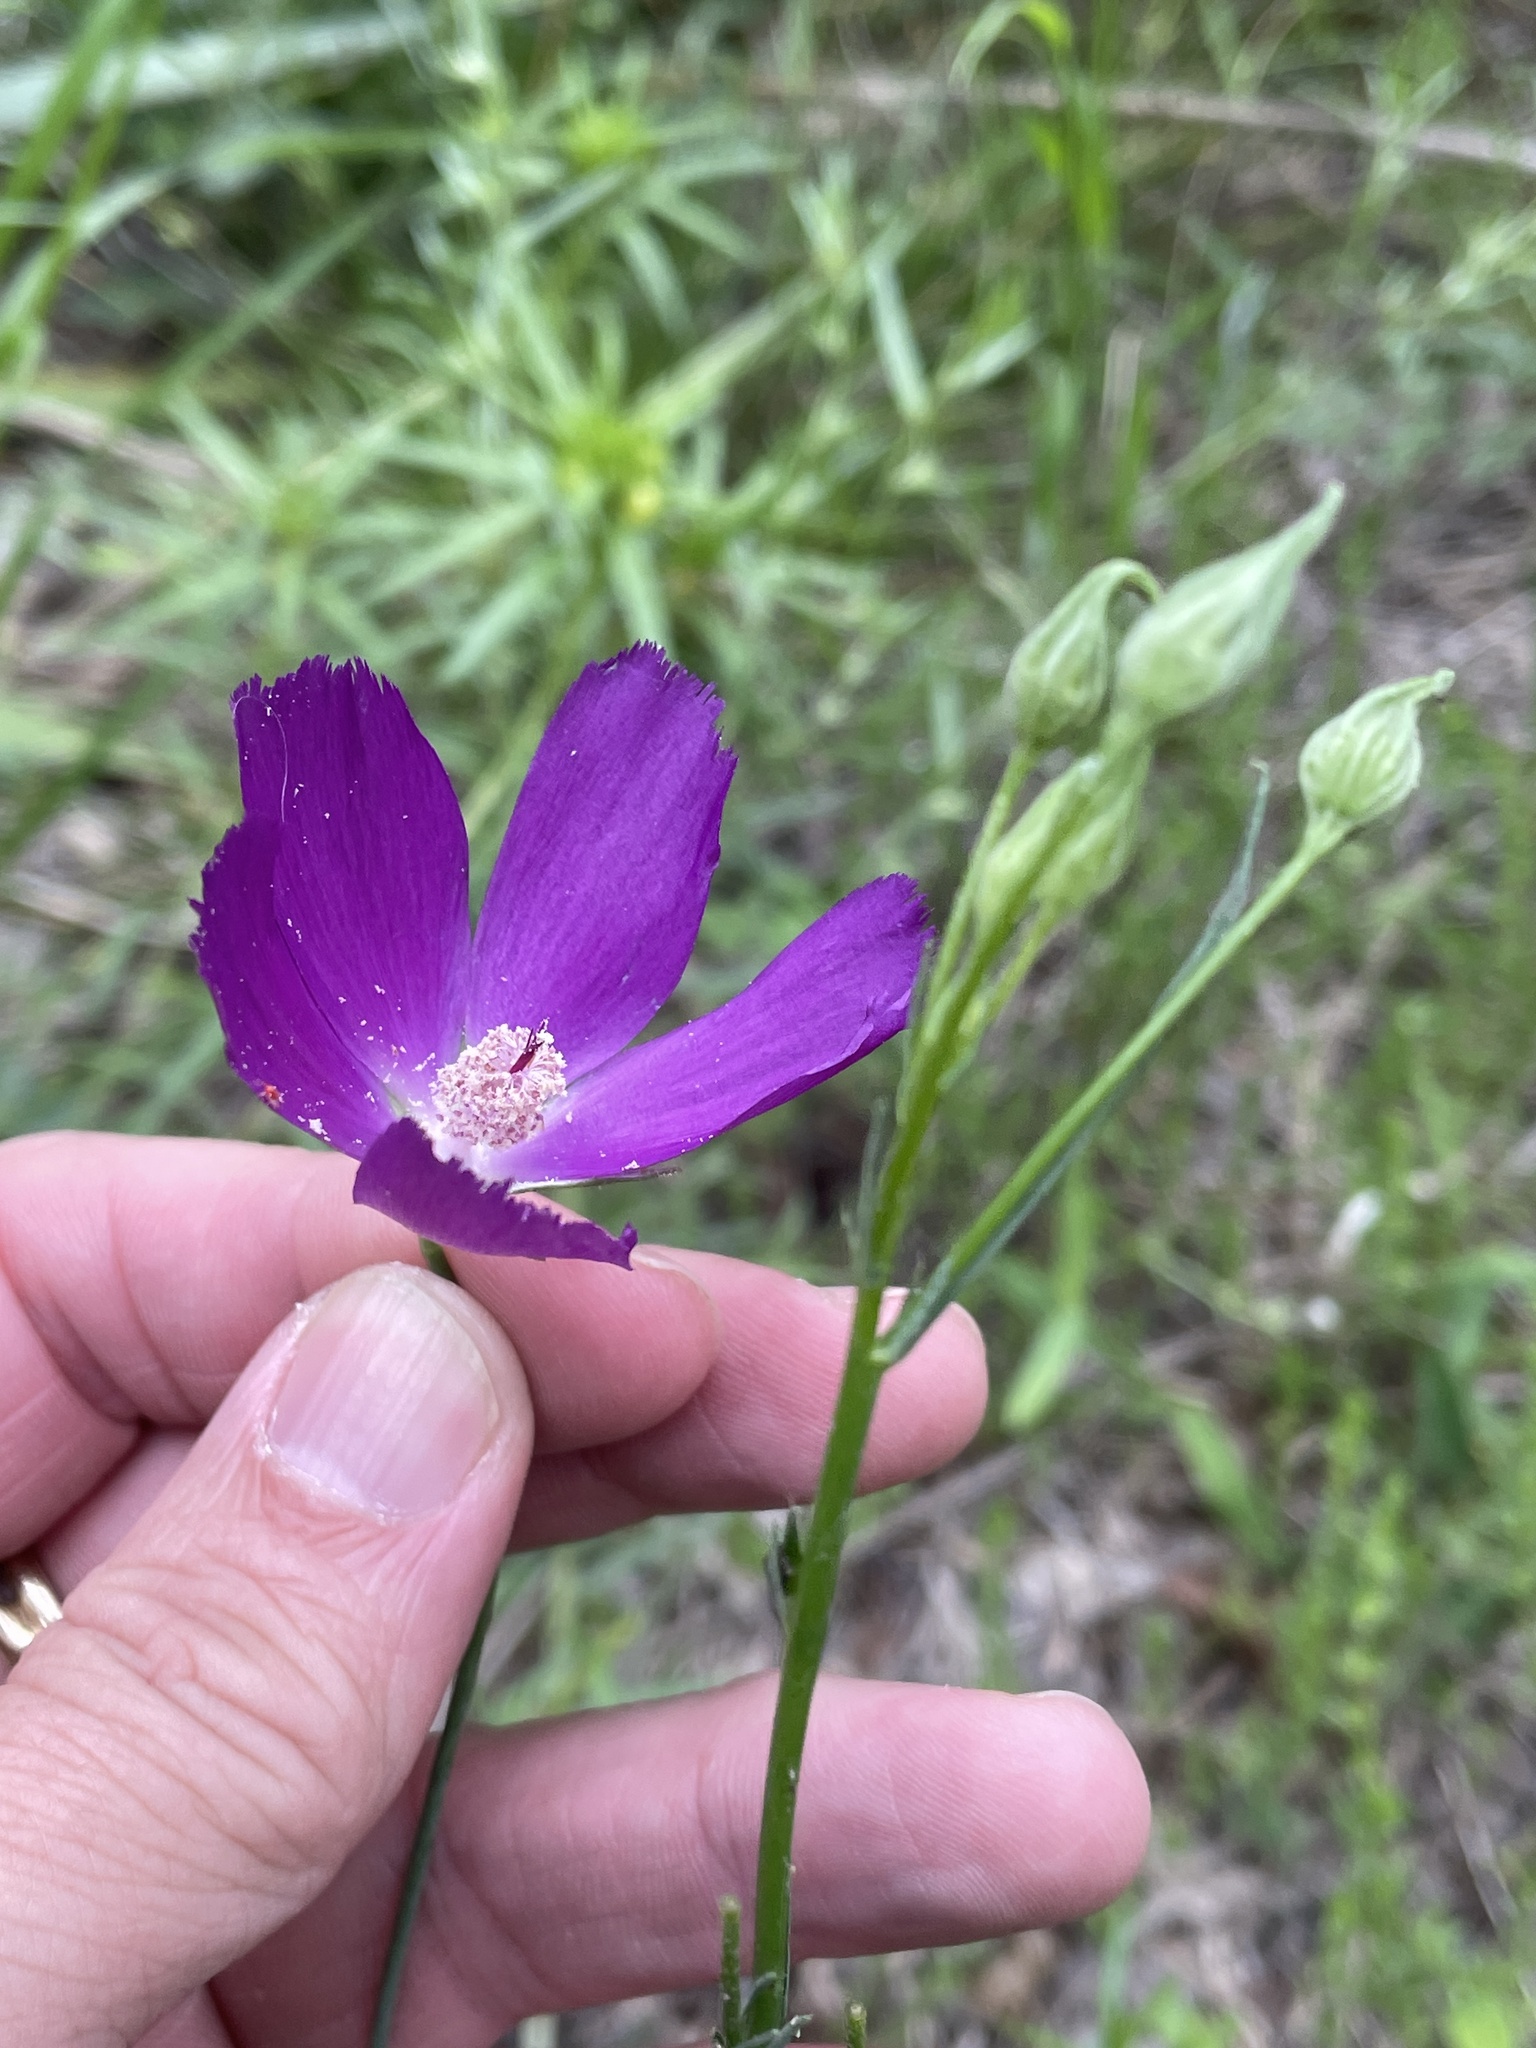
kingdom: Plantae
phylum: Tracheophyta
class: Magnoliopsida
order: Malvales
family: Malvaceae
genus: Callirhoe
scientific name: Callirhoe pedata
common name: Finger poppy-mallow
